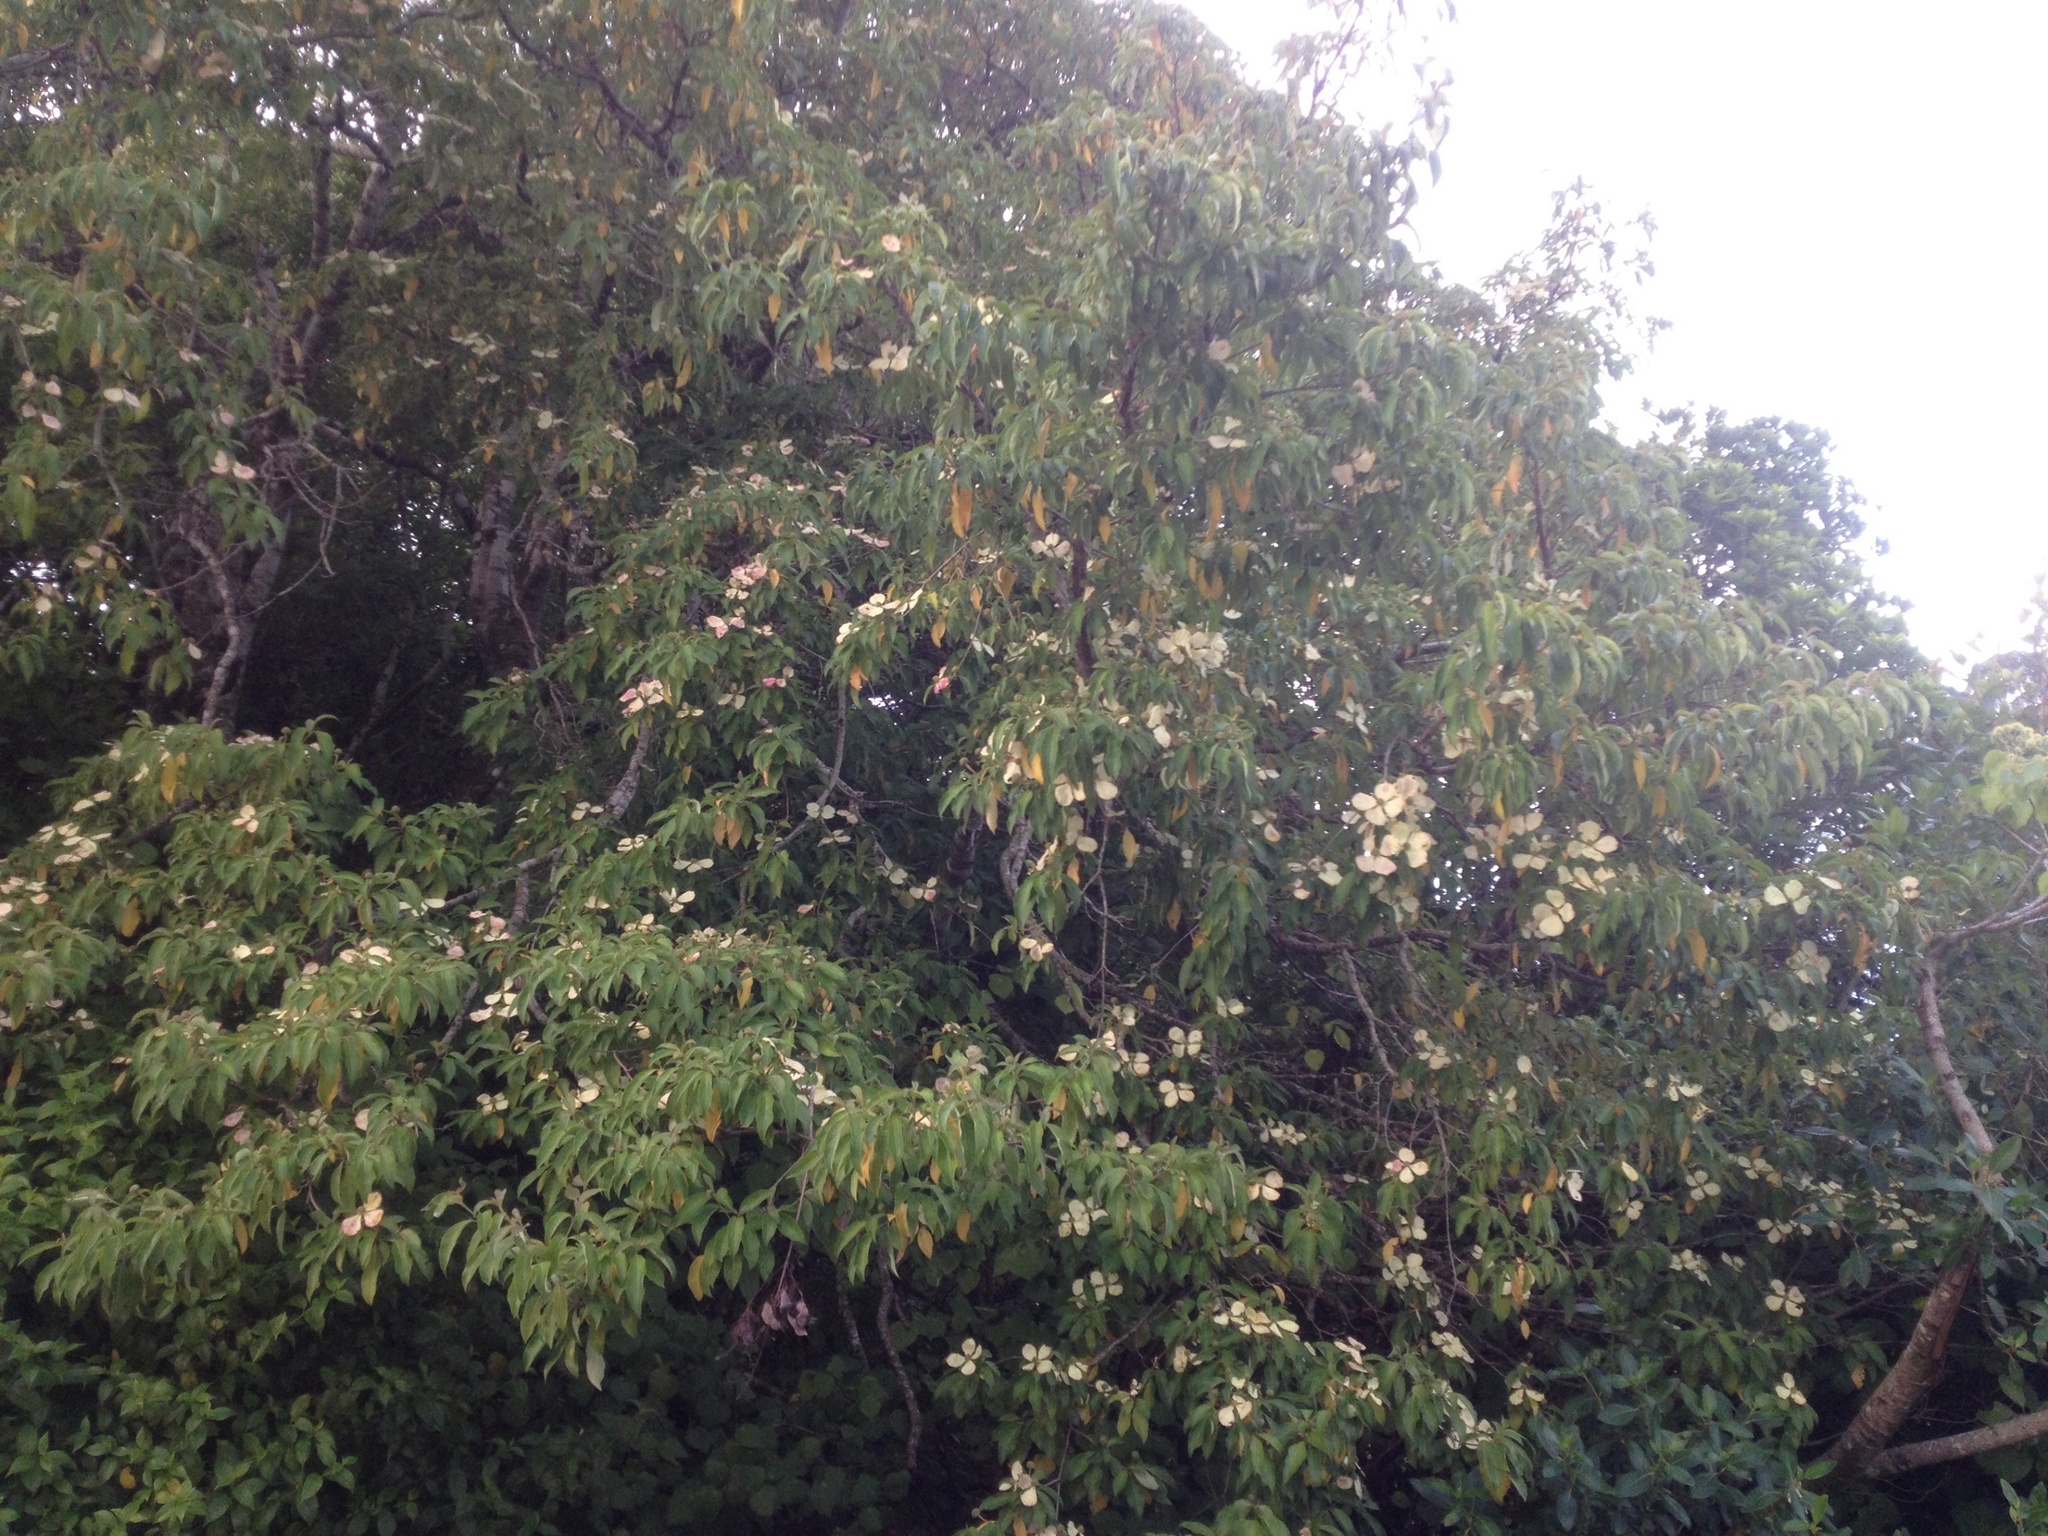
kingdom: Plantae
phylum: Tracheophyta
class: Magnoliopsida
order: Cornales
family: Cornaceae
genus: Cornus
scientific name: Cornus capitata
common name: Bentham's cornel
